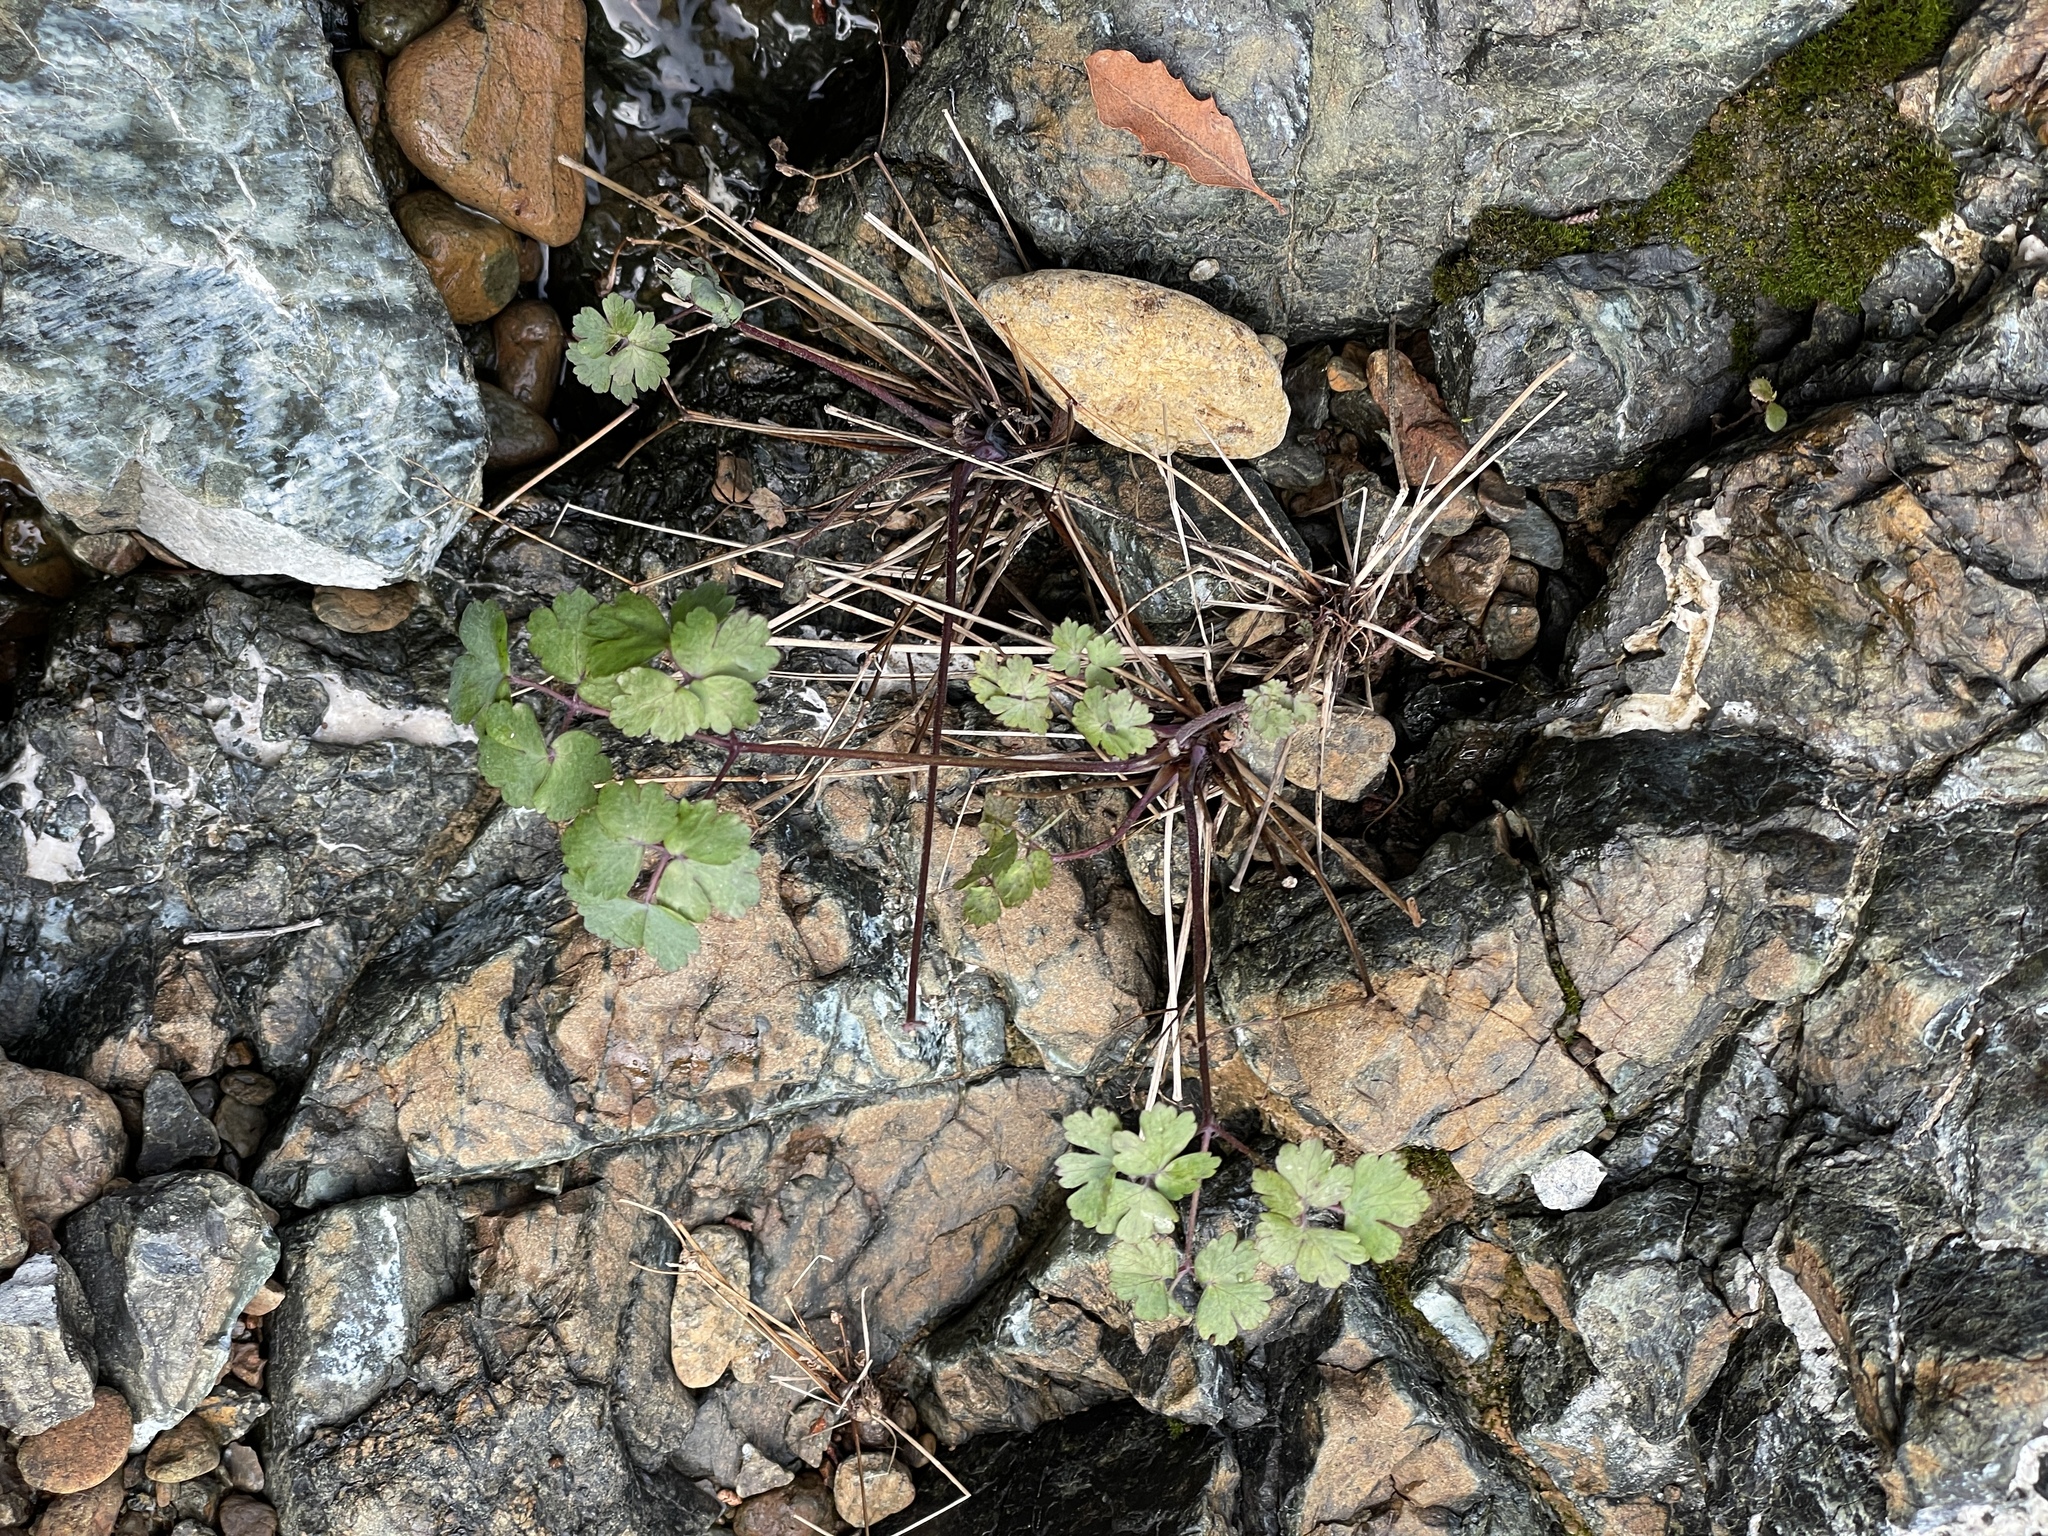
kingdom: Plantae
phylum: Tracheophyta
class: Magnoliopsida
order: Ranunculales
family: Ranunculaceae
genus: Aquilegia
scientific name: Aquilegia eximia
